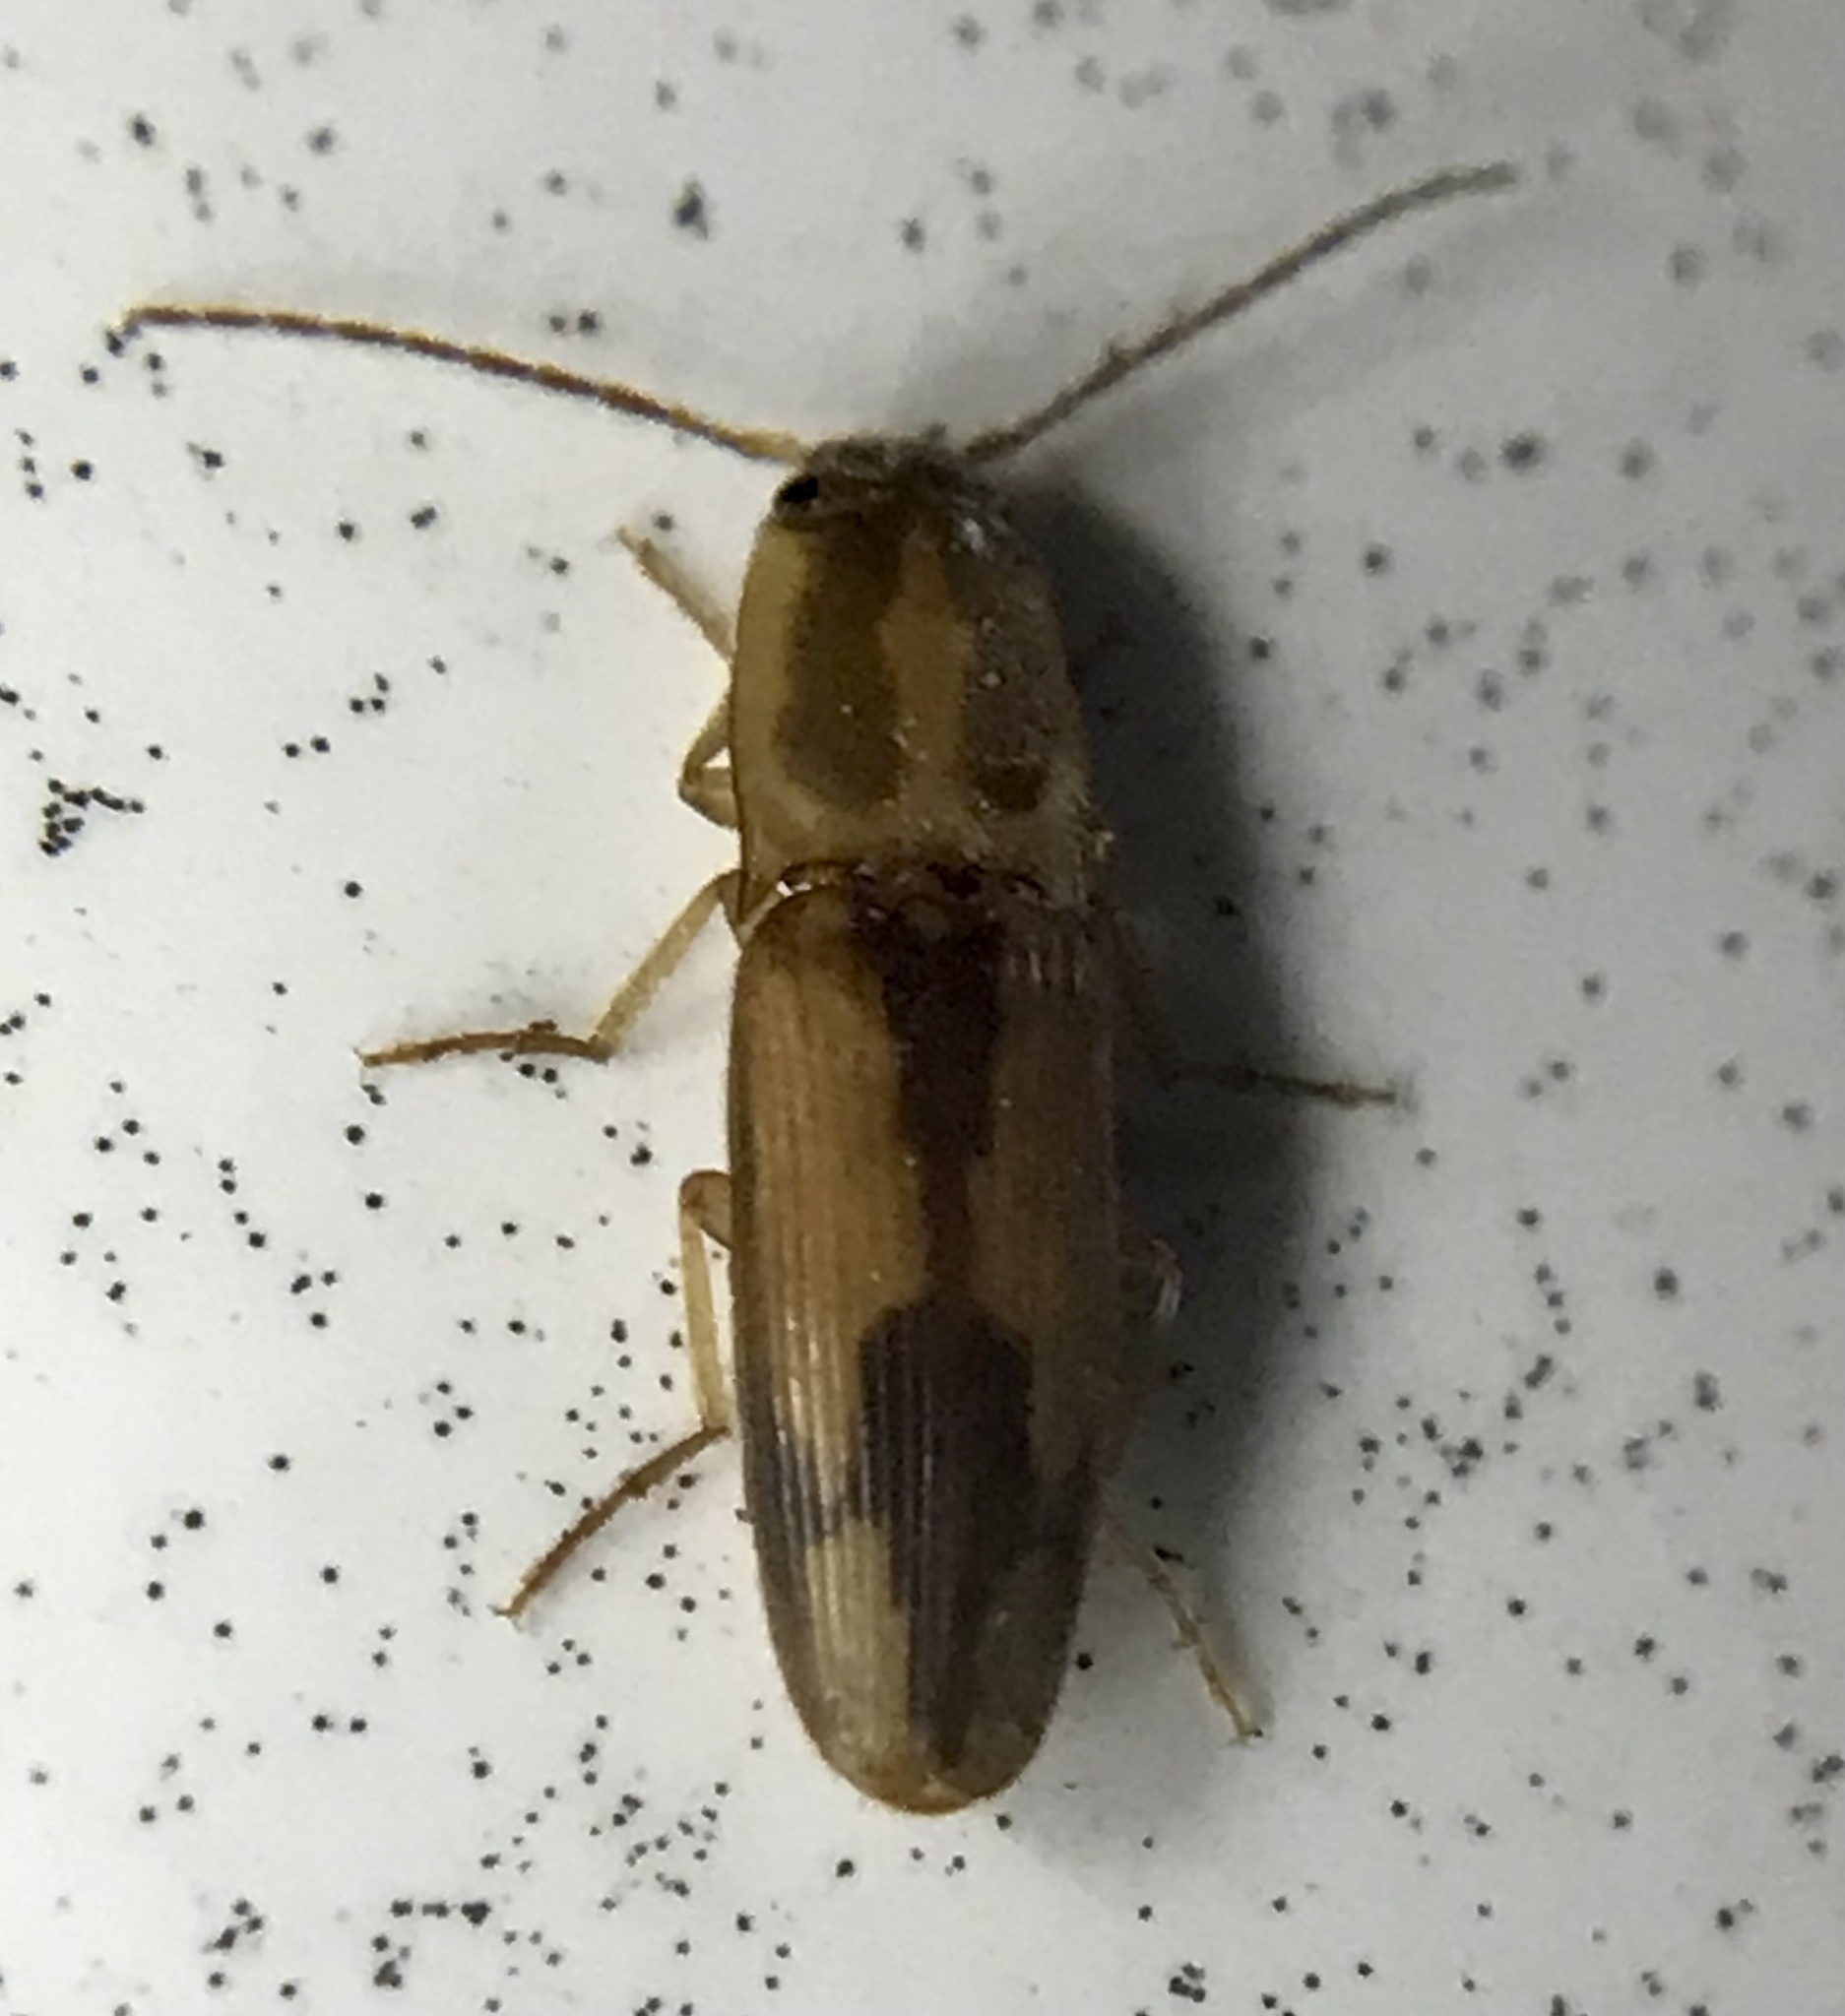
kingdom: Animalia
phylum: Arthropoda
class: Insecta
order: Coleoptera
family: Elateridae
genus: Monocrepidius
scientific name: Monocrepidius
